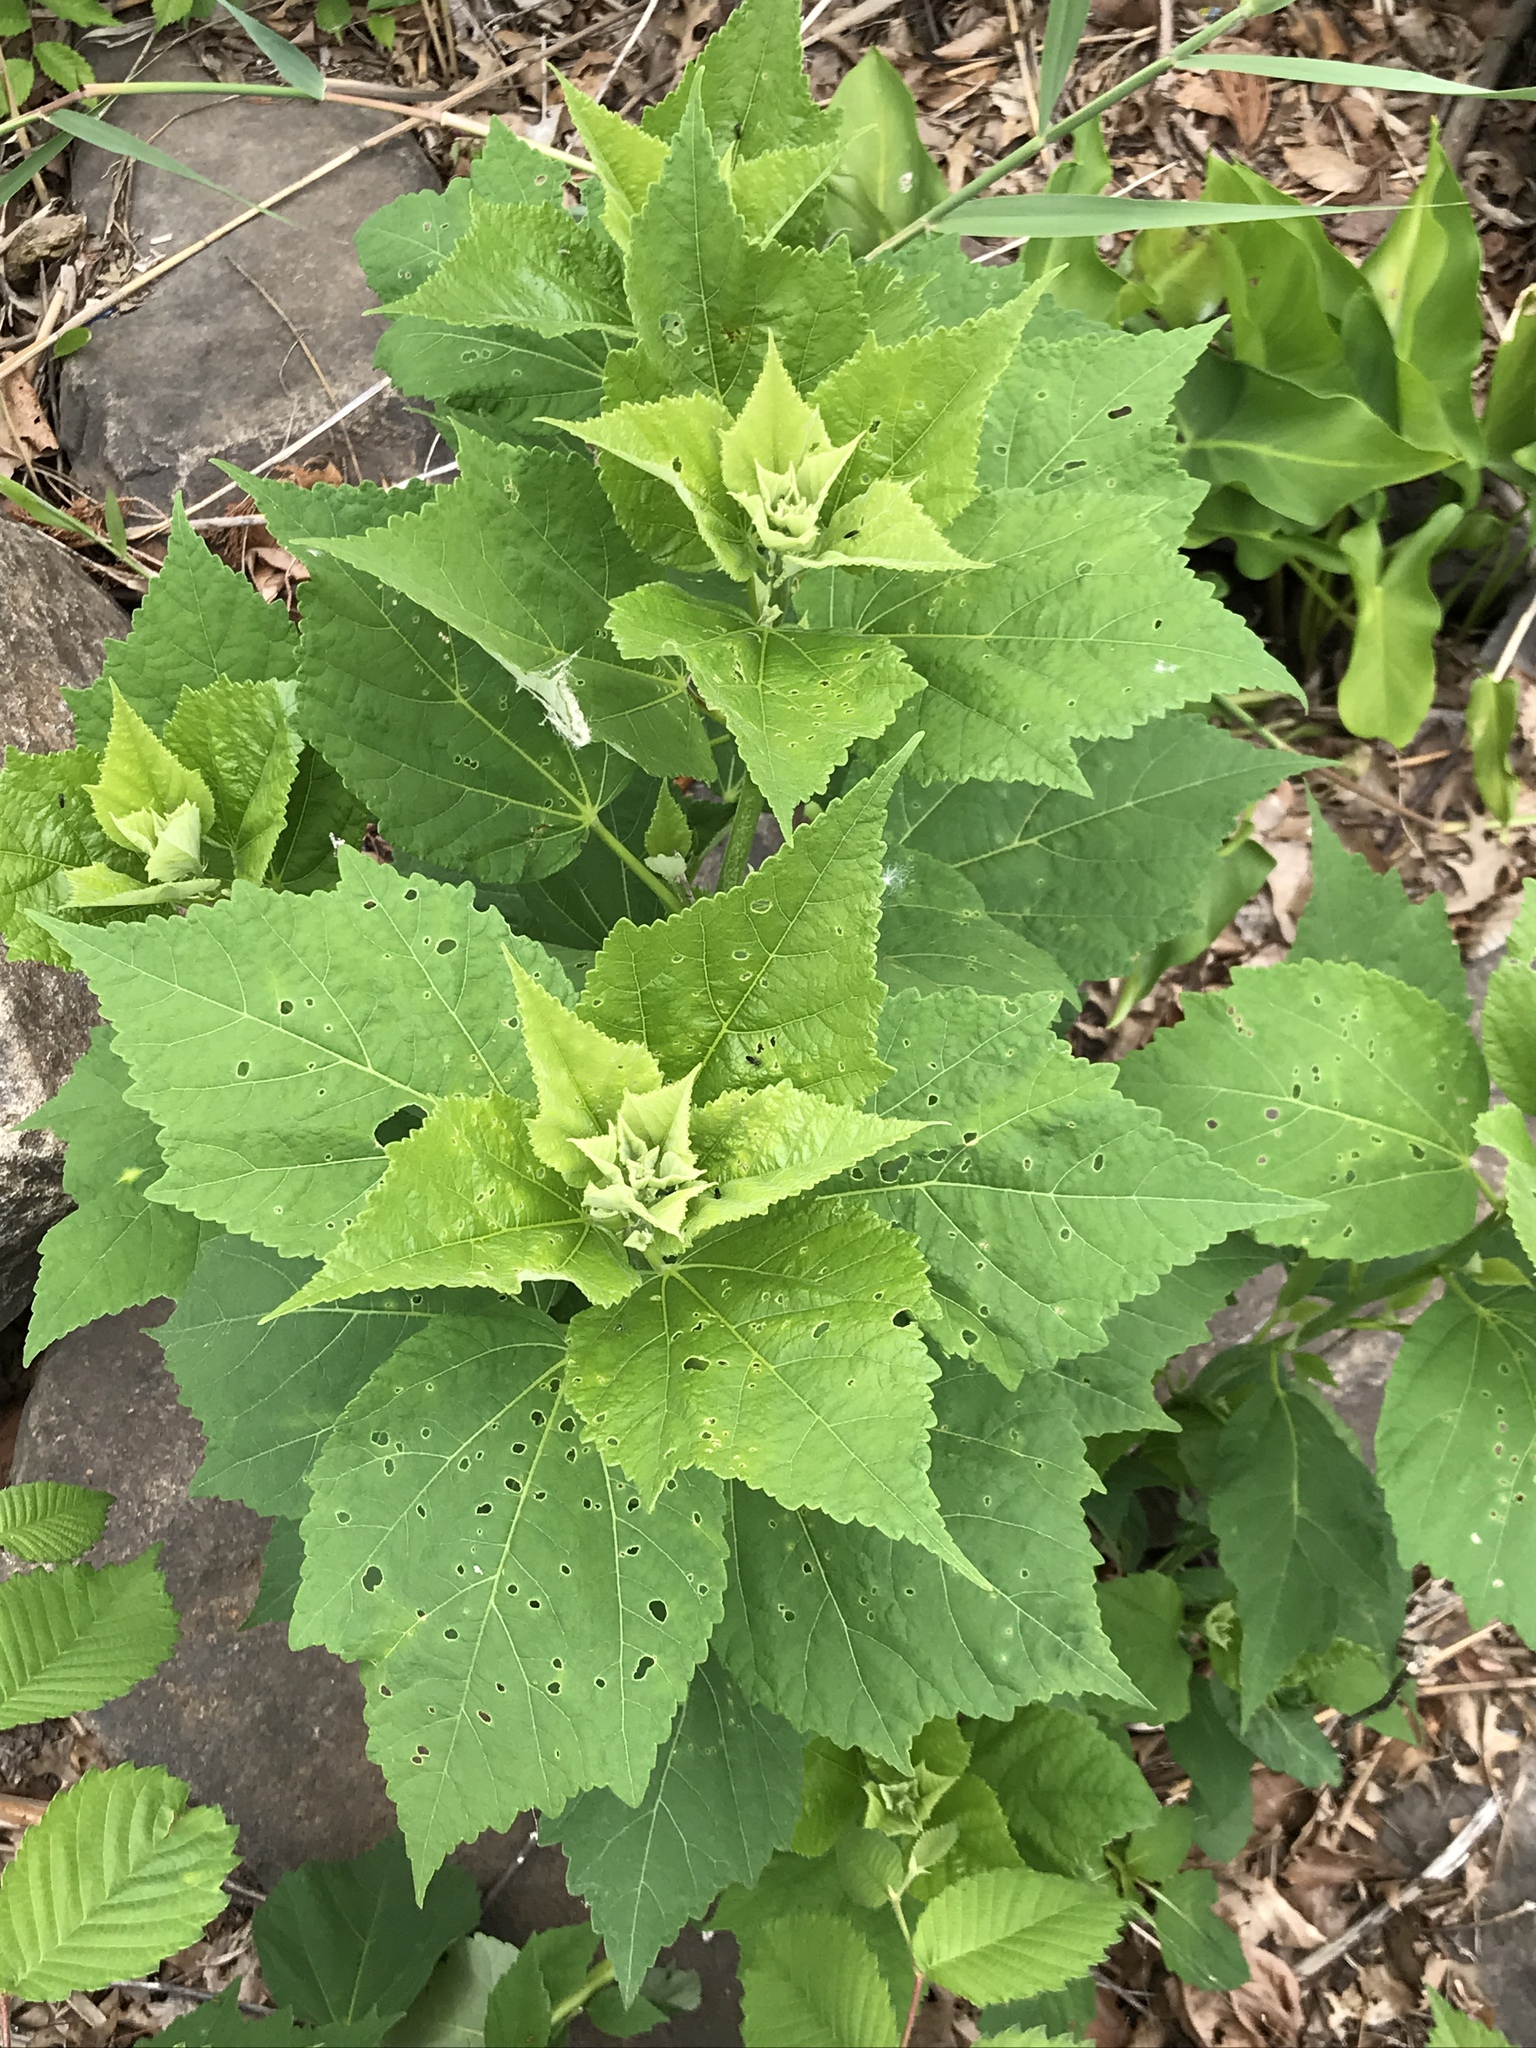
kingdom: Plantae
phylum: Tracheophyta
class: Magnoliopsida
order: Malvales
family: Malvaceae
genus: Hibiscus
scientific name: Hibiscus moscheutos
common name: Common rose-mallow
